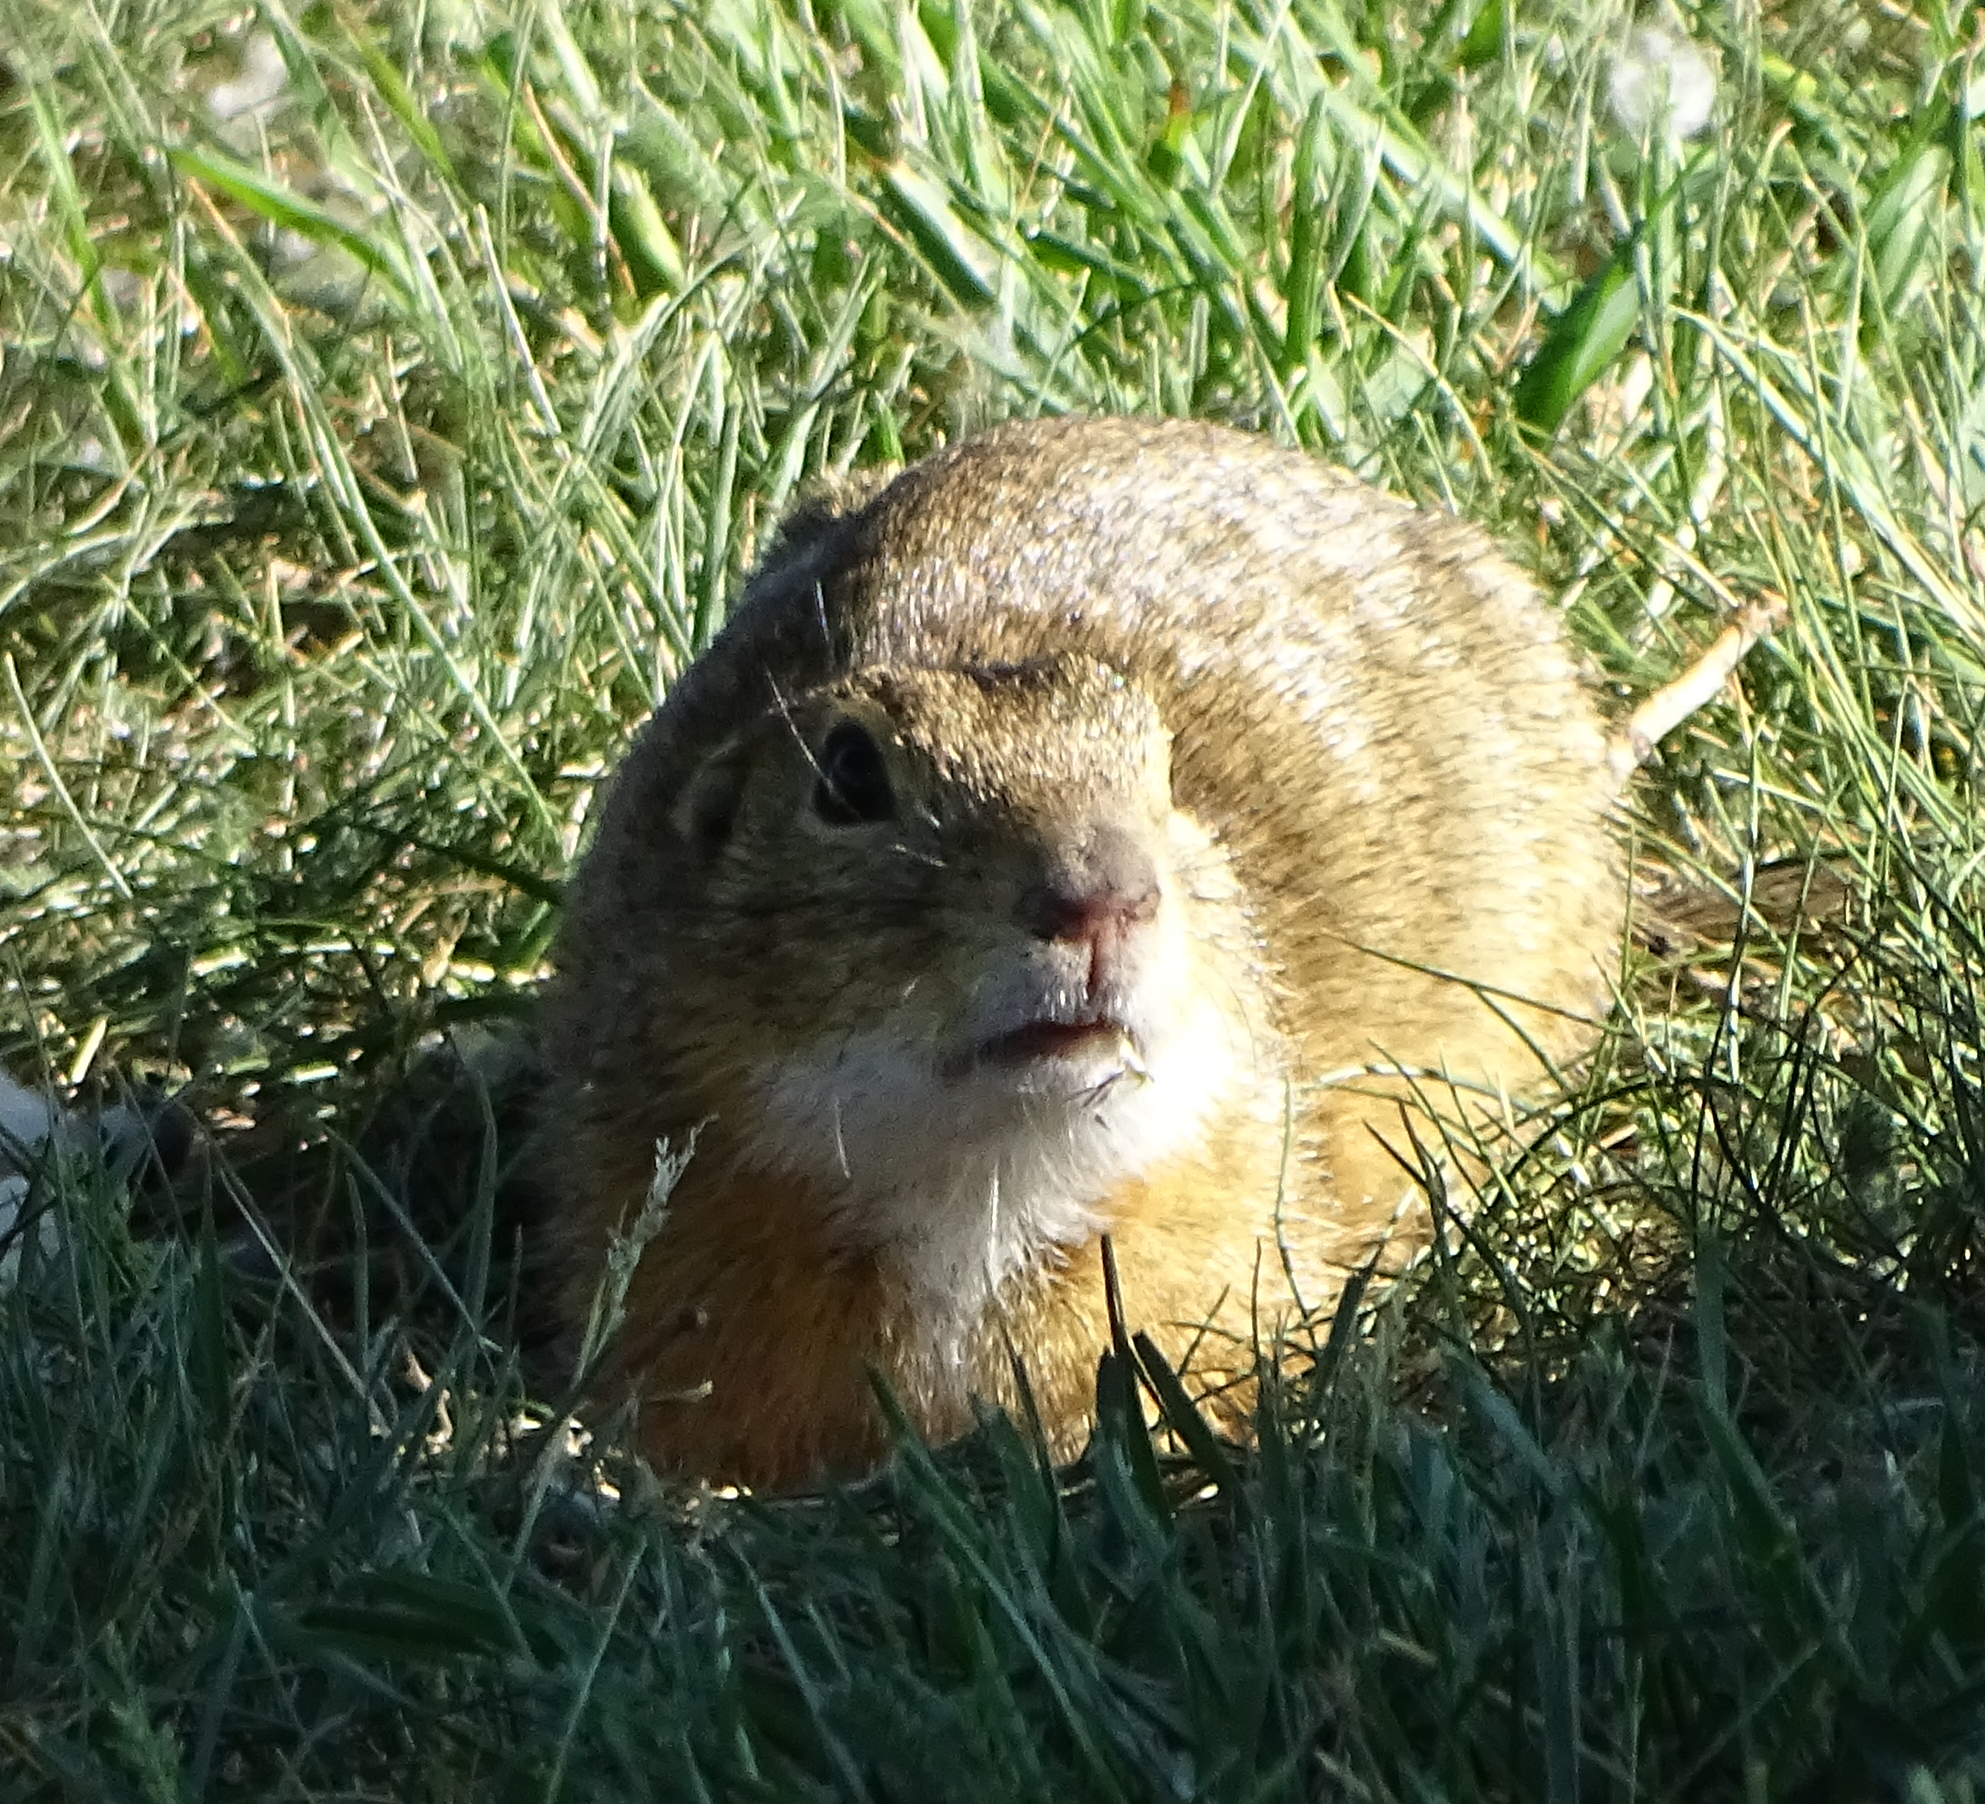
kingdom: Animalia
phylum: Chordata
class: Mammalia
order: Rodentia
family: Sciuridae
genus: Spermophilus
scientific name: Spermophilus citellus
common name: European ground squirrel
